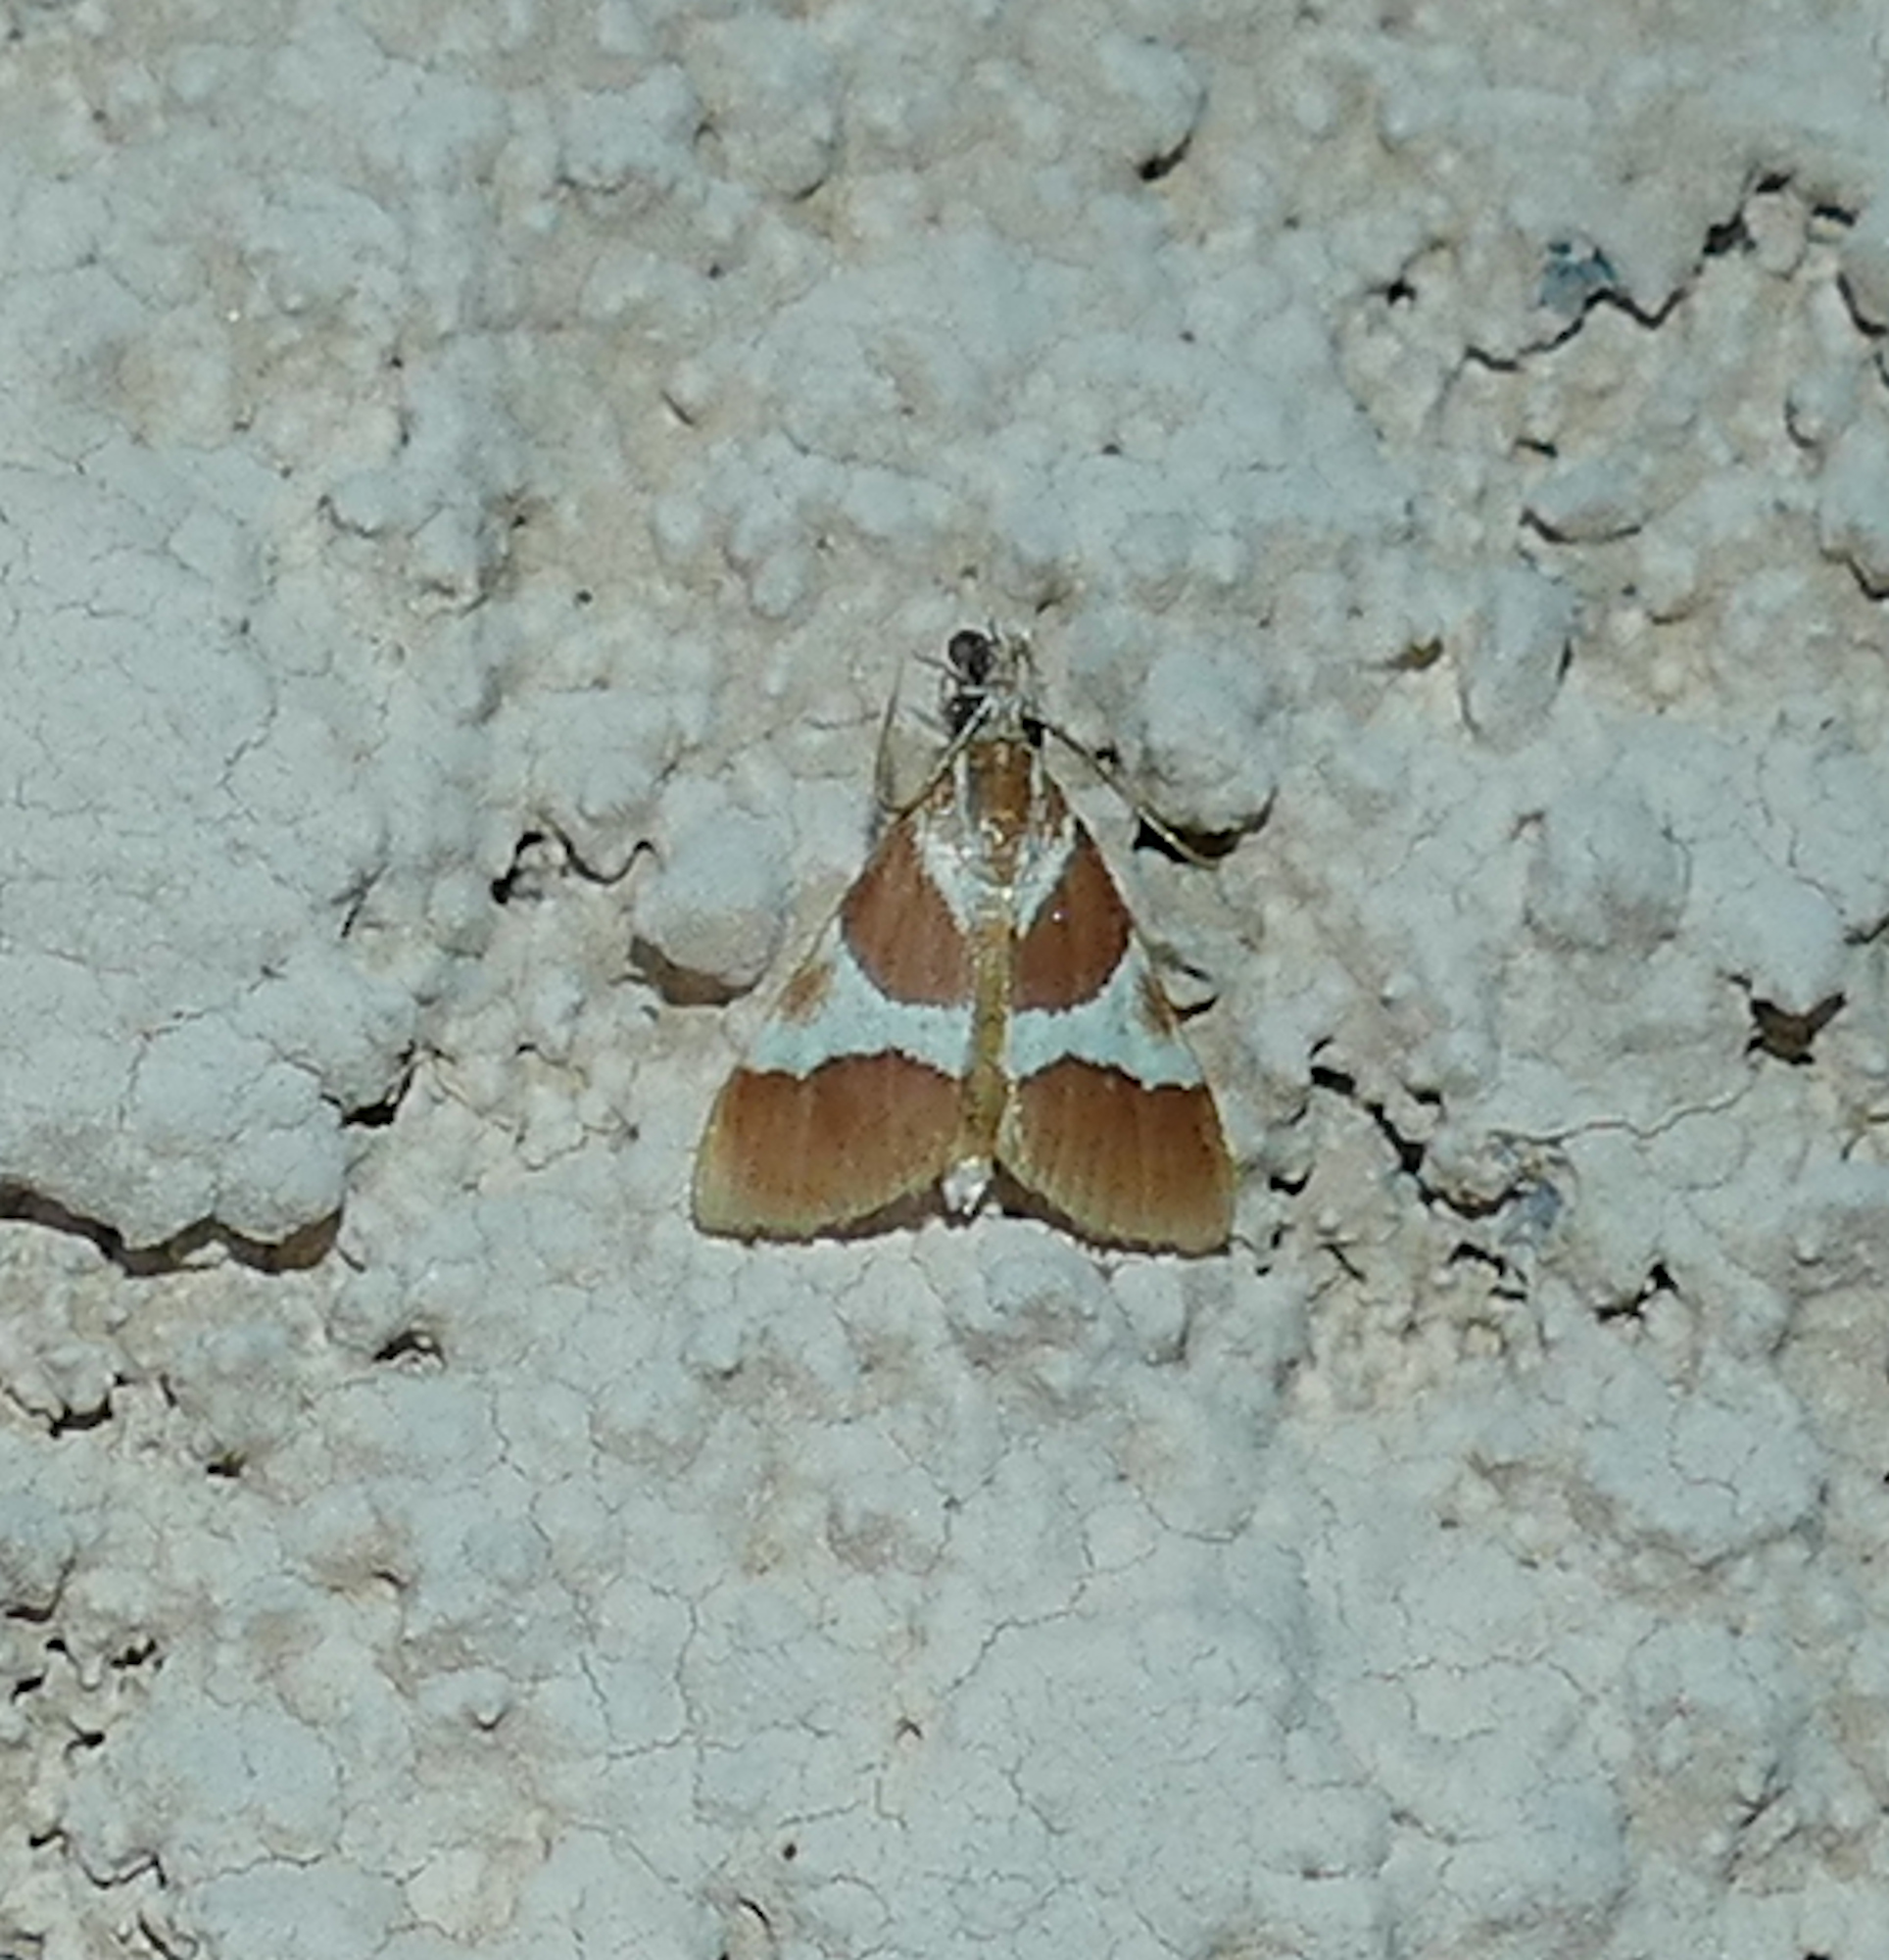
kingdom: Animalia
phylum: Arthropoda
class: Insecta
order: Lepidoptera
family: Crambidae
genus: Jativa
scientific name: Jativa castanealis
